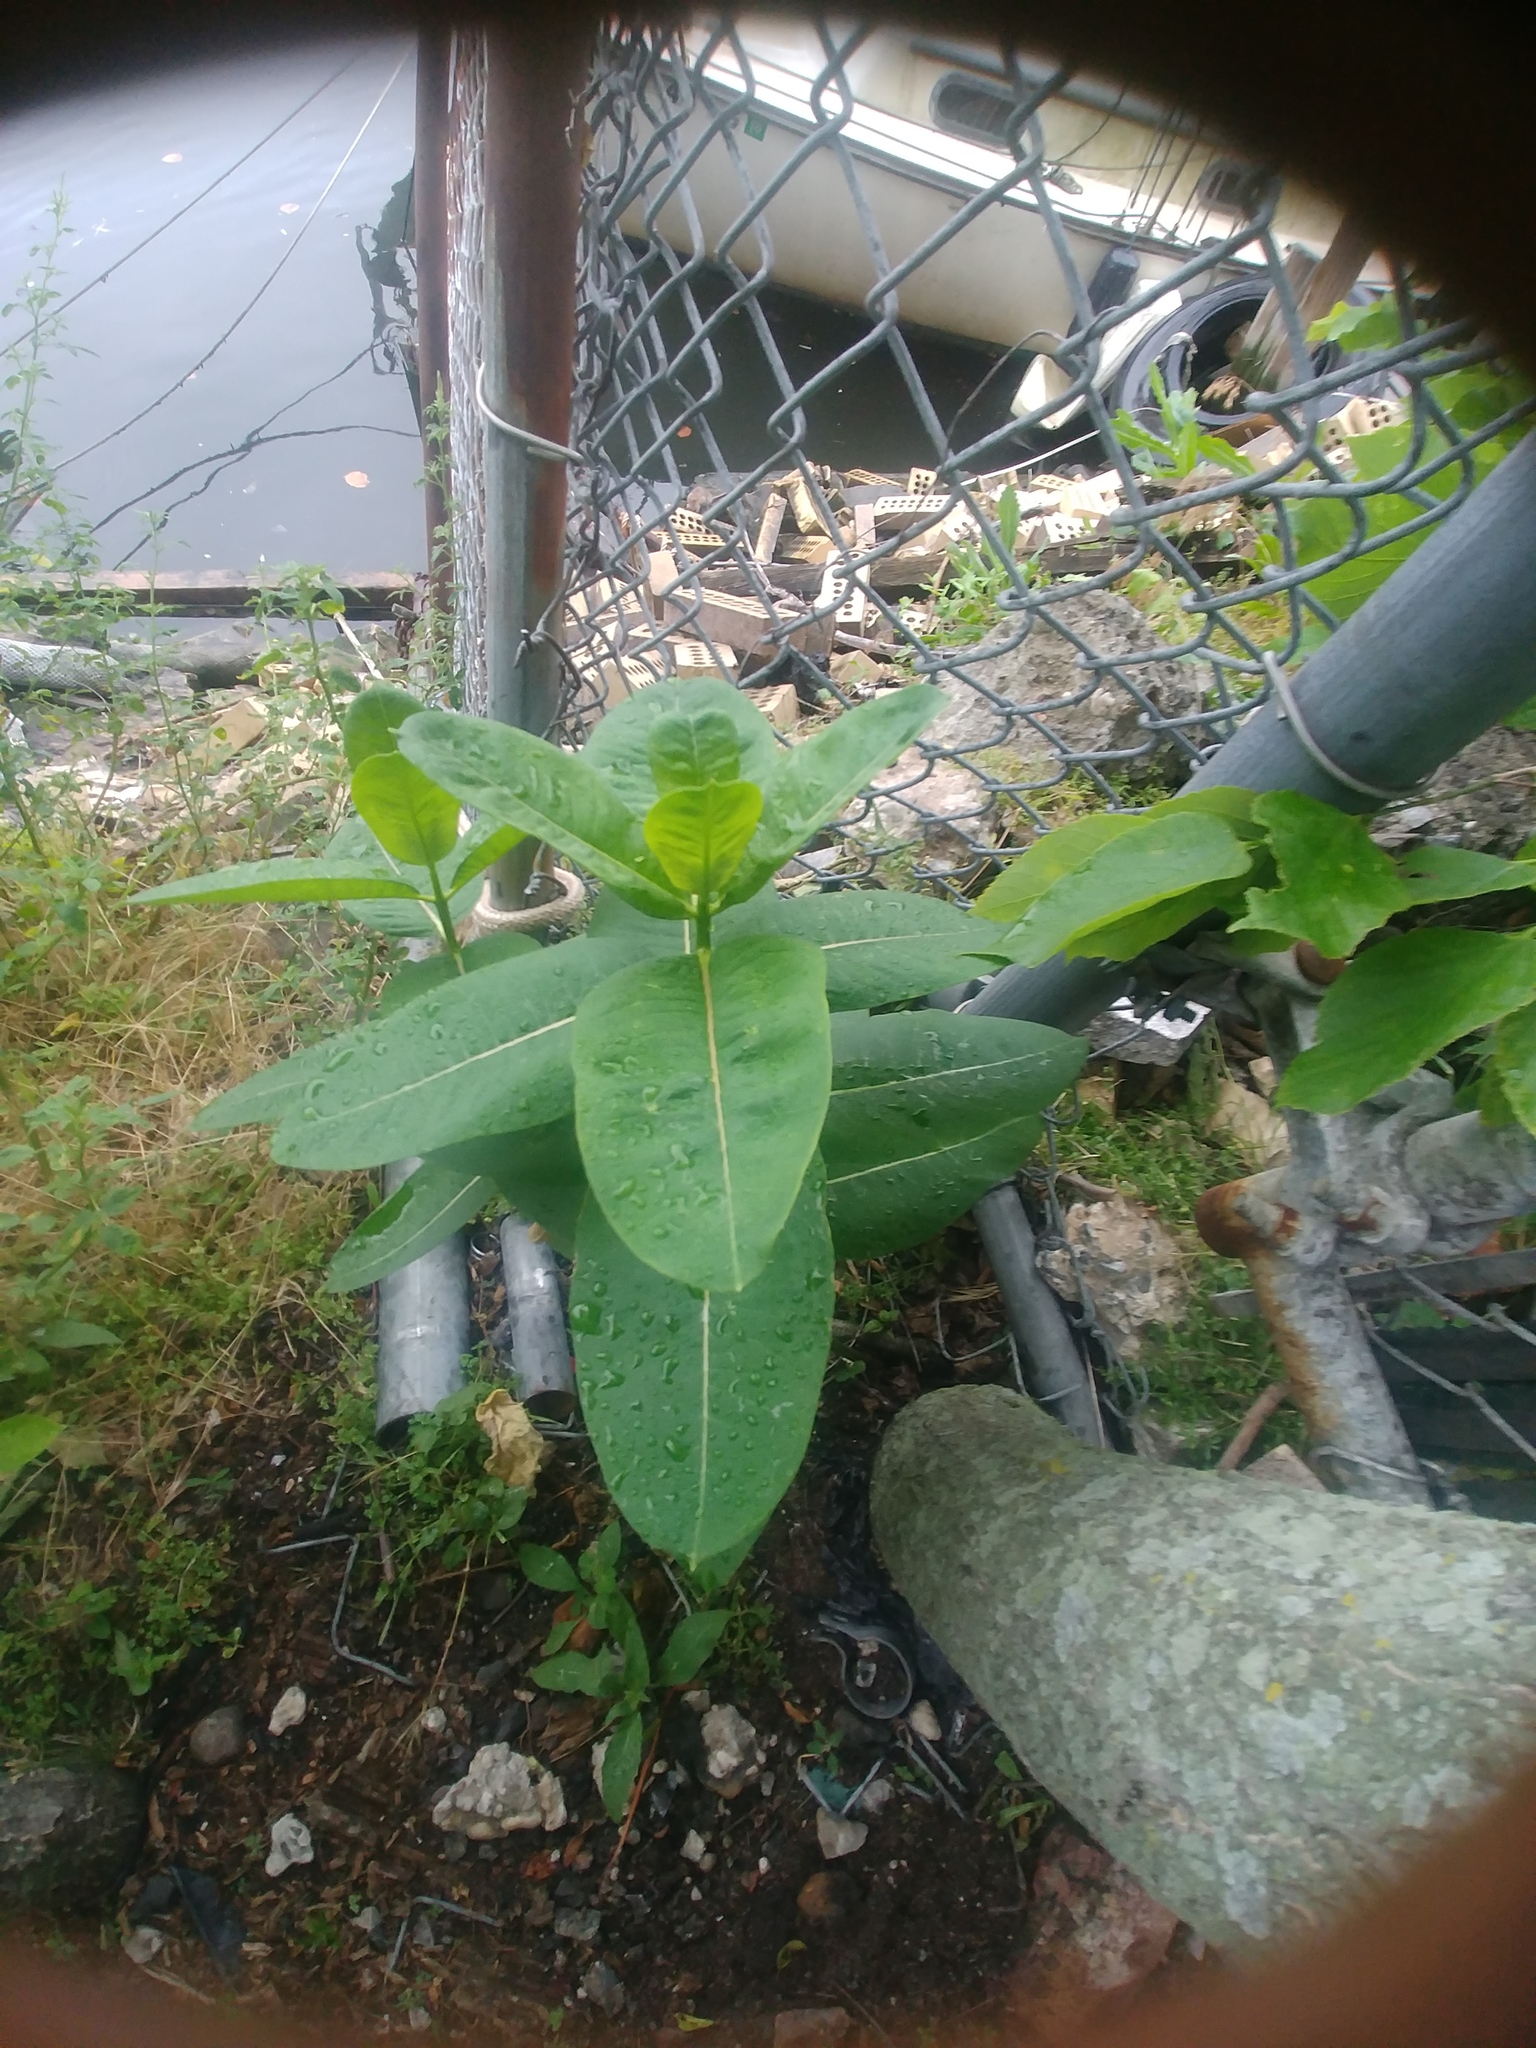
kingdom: Plantae
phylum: Tracheophyta
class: Magnoliopsida
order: Gentianales
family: Apocynaceae
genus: Asclepias
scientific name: Asclepias syriaca
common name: Common milkweed
